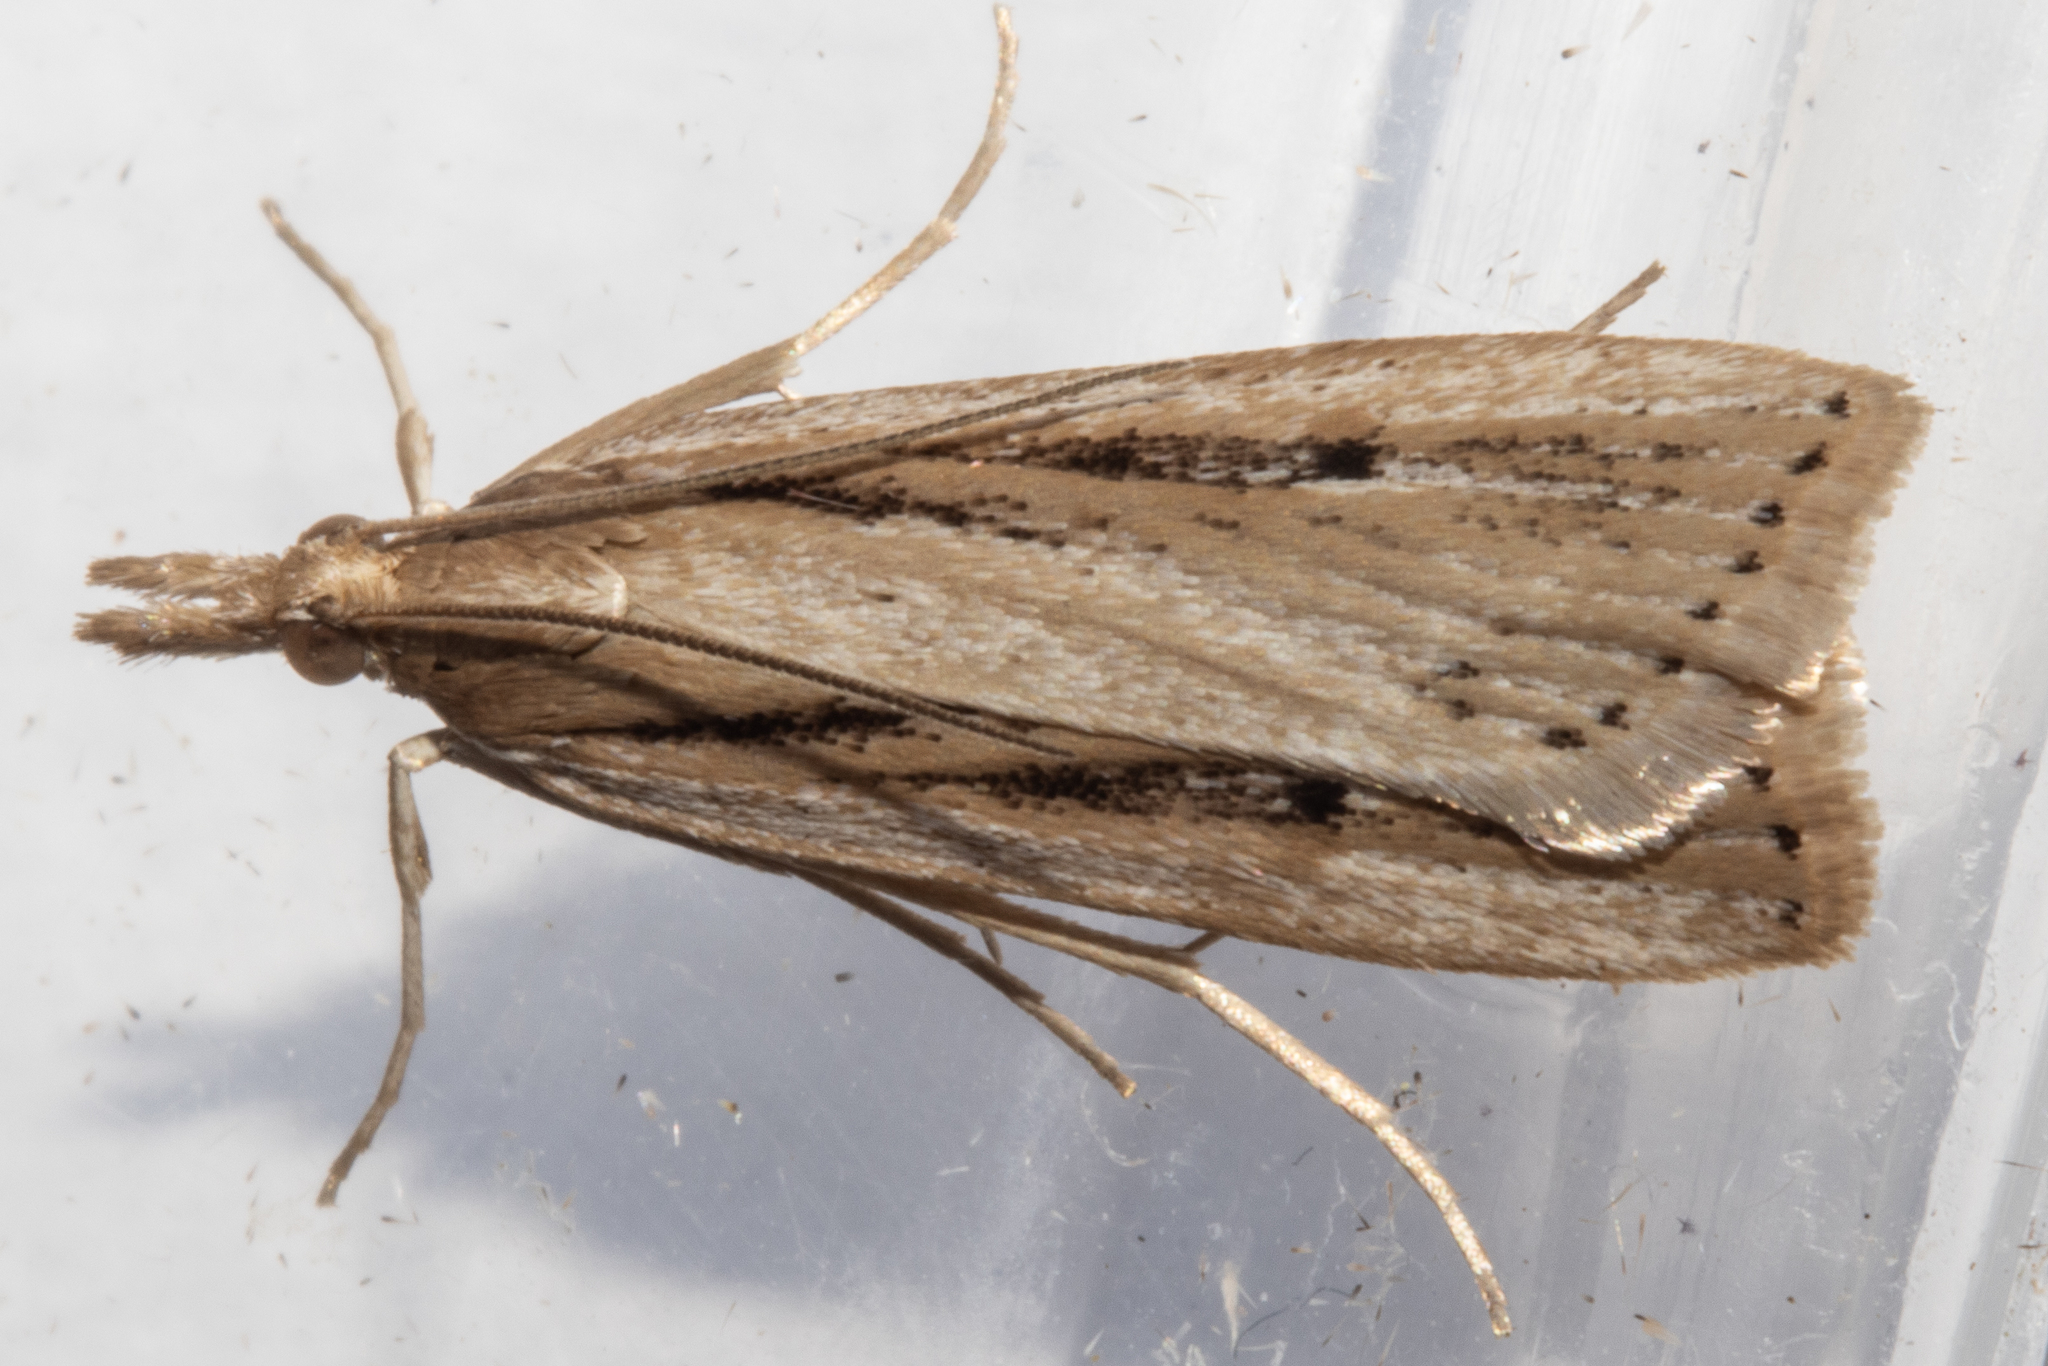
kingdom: Animalia
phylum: Arthropoda
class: Insecta
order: Lepidoptera
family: Crambidae
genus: Eudonia
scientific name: Eudonia sabulosella
